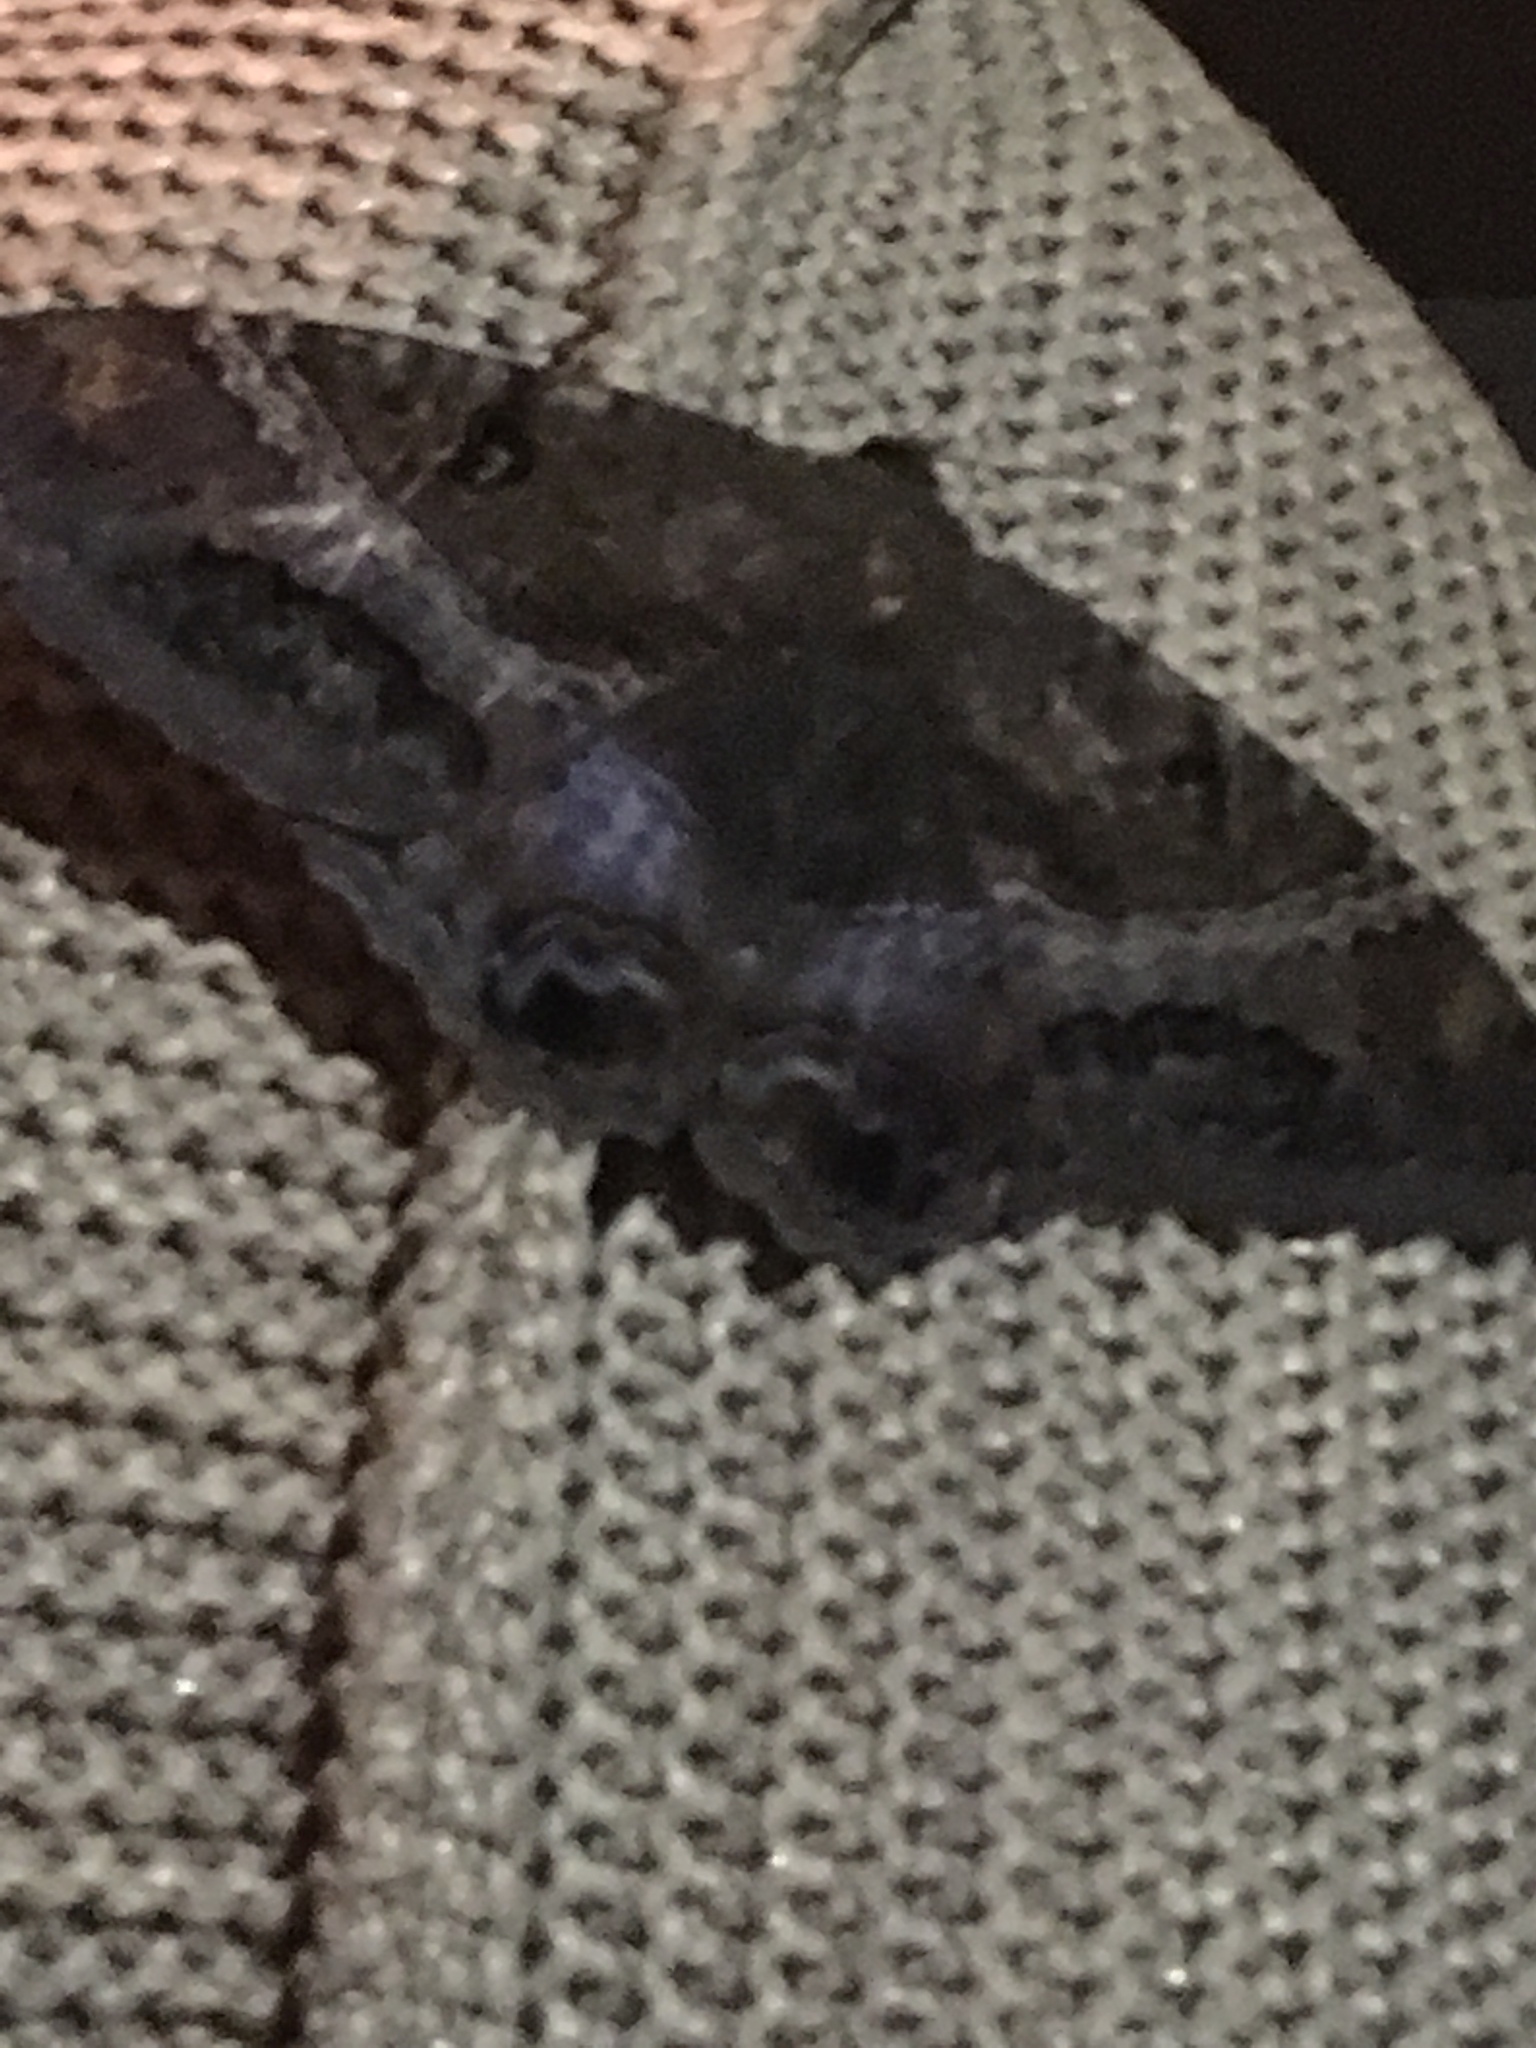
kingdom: Animalia
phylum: Arthropoda
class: Insecta
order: Lepidoptera
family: Erebidae
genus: Ascalapha
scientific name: Ascalapha odorata
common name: Black witch
